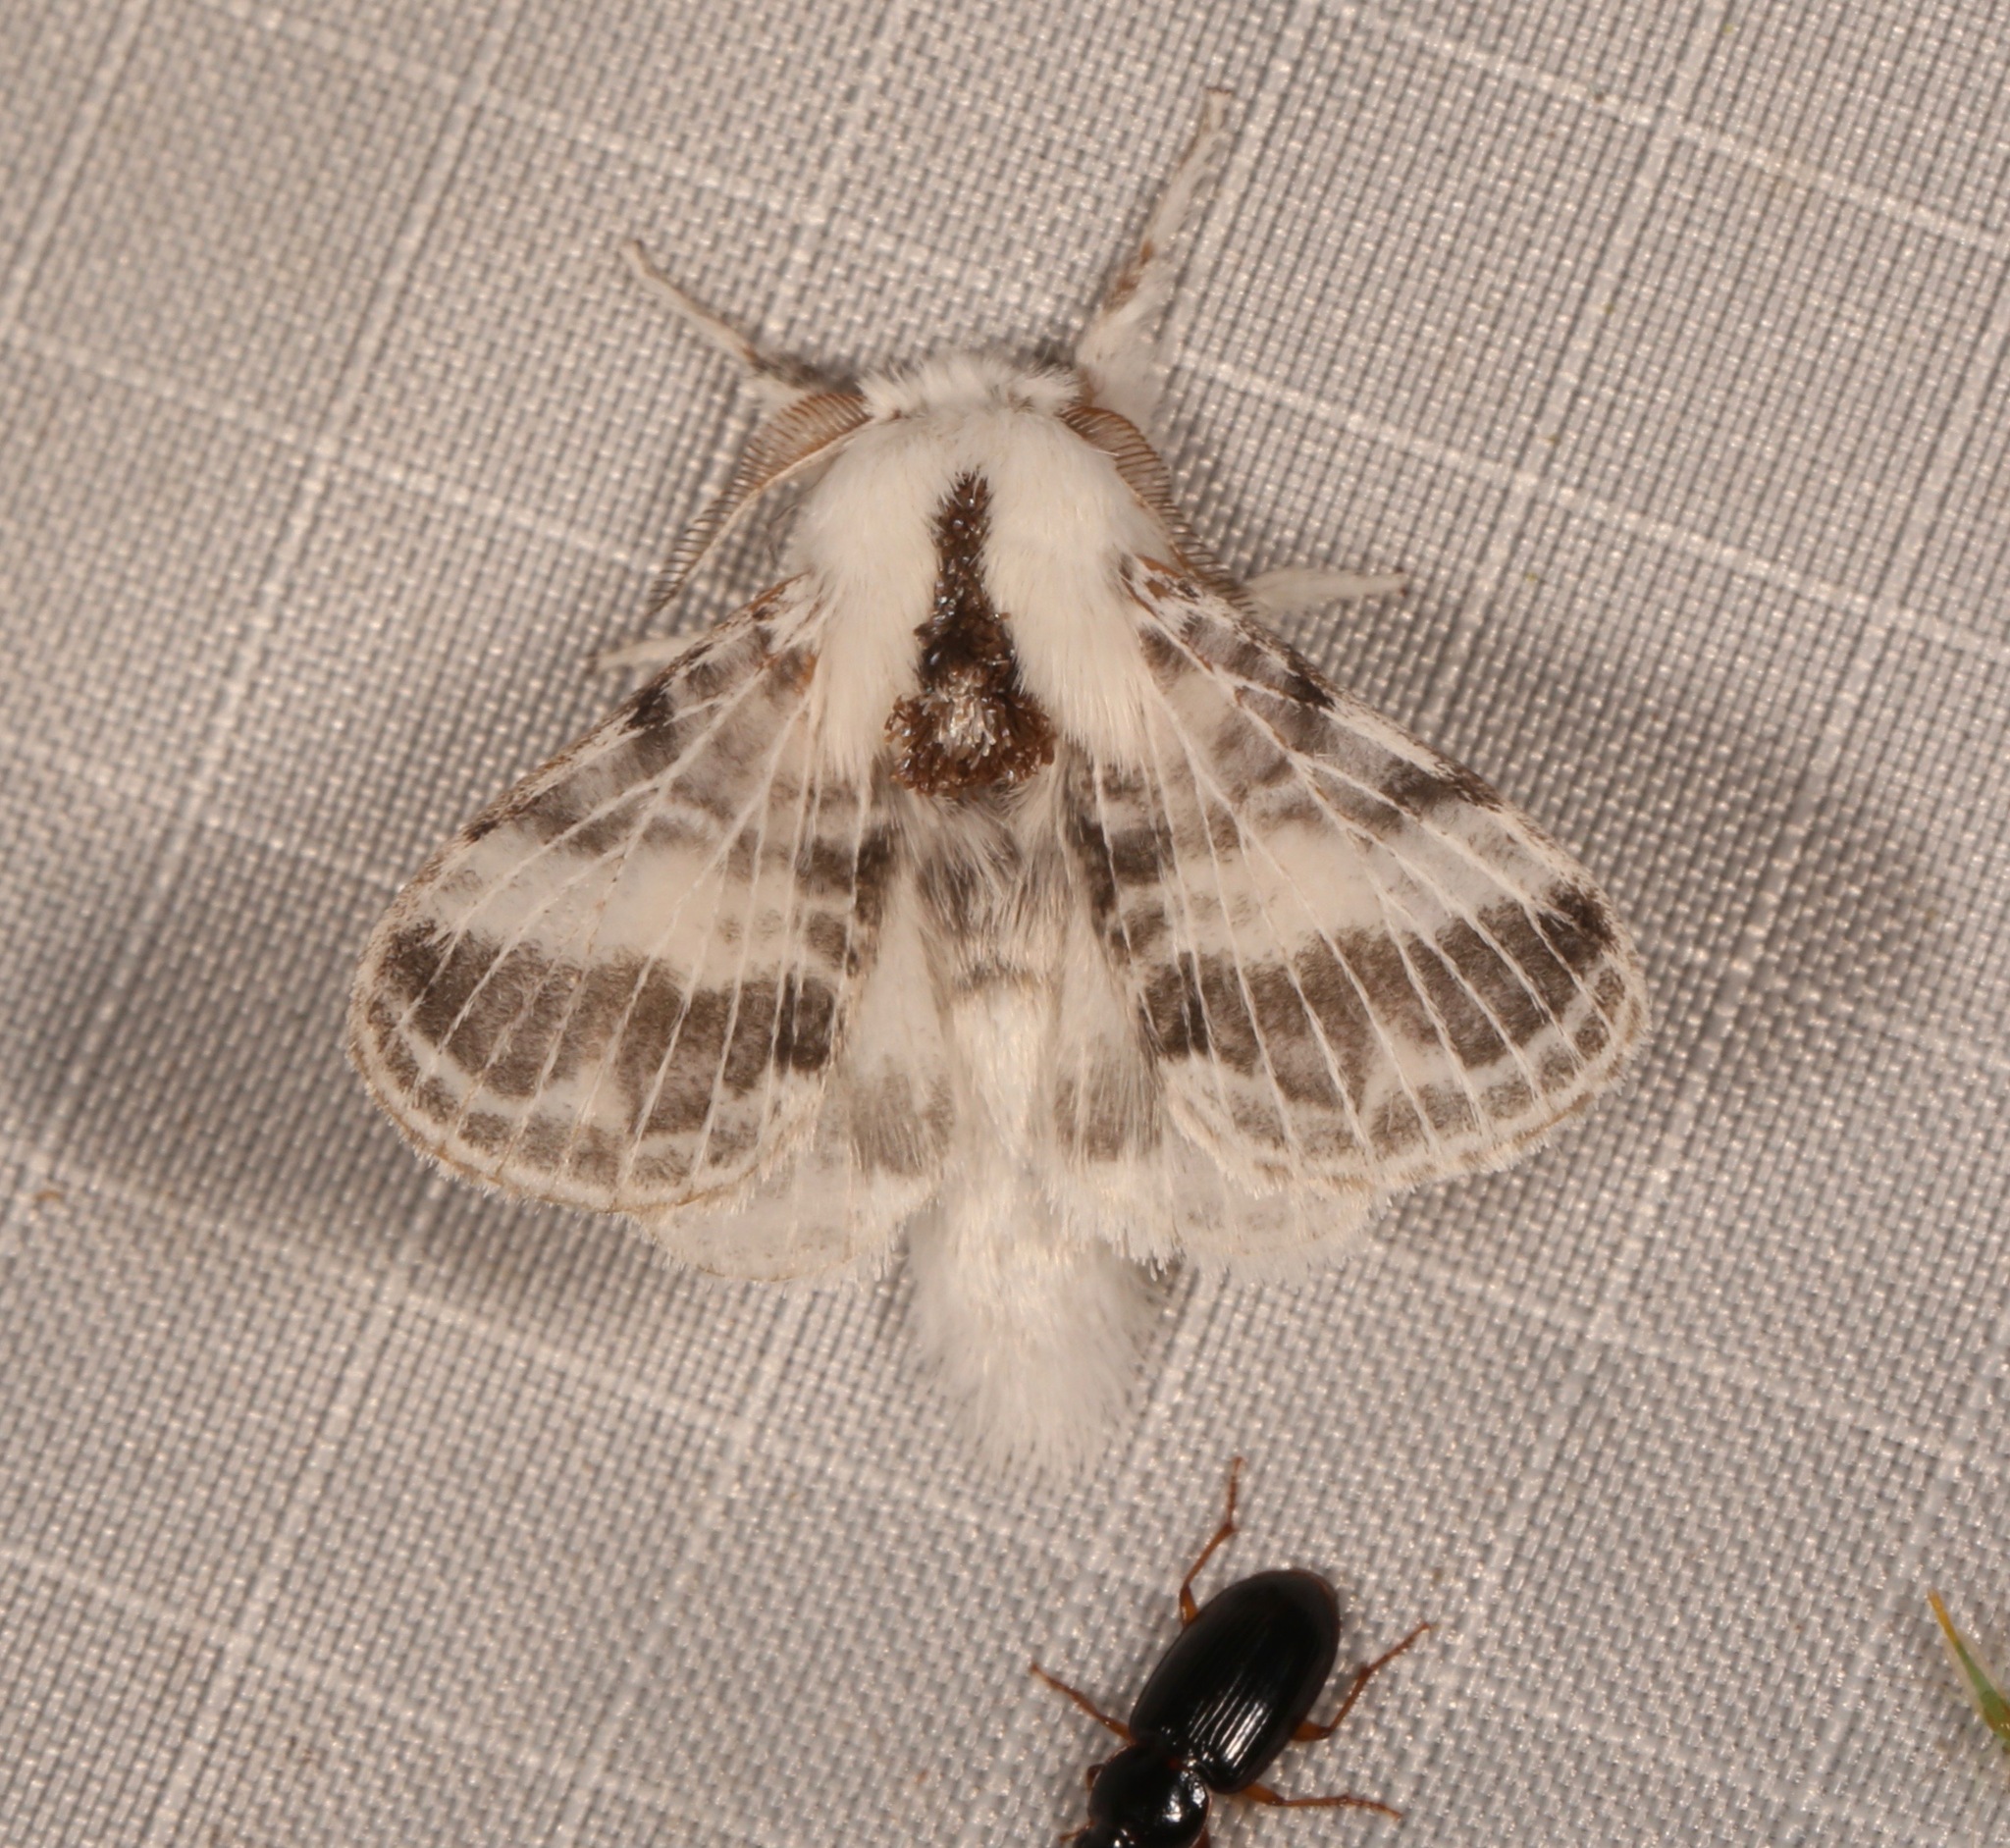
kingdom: Animalia
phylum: Arthropoda
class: Insecta
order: Lepidoptera
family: Lasiocampidae
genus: Tolype
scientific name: Tolype minta
